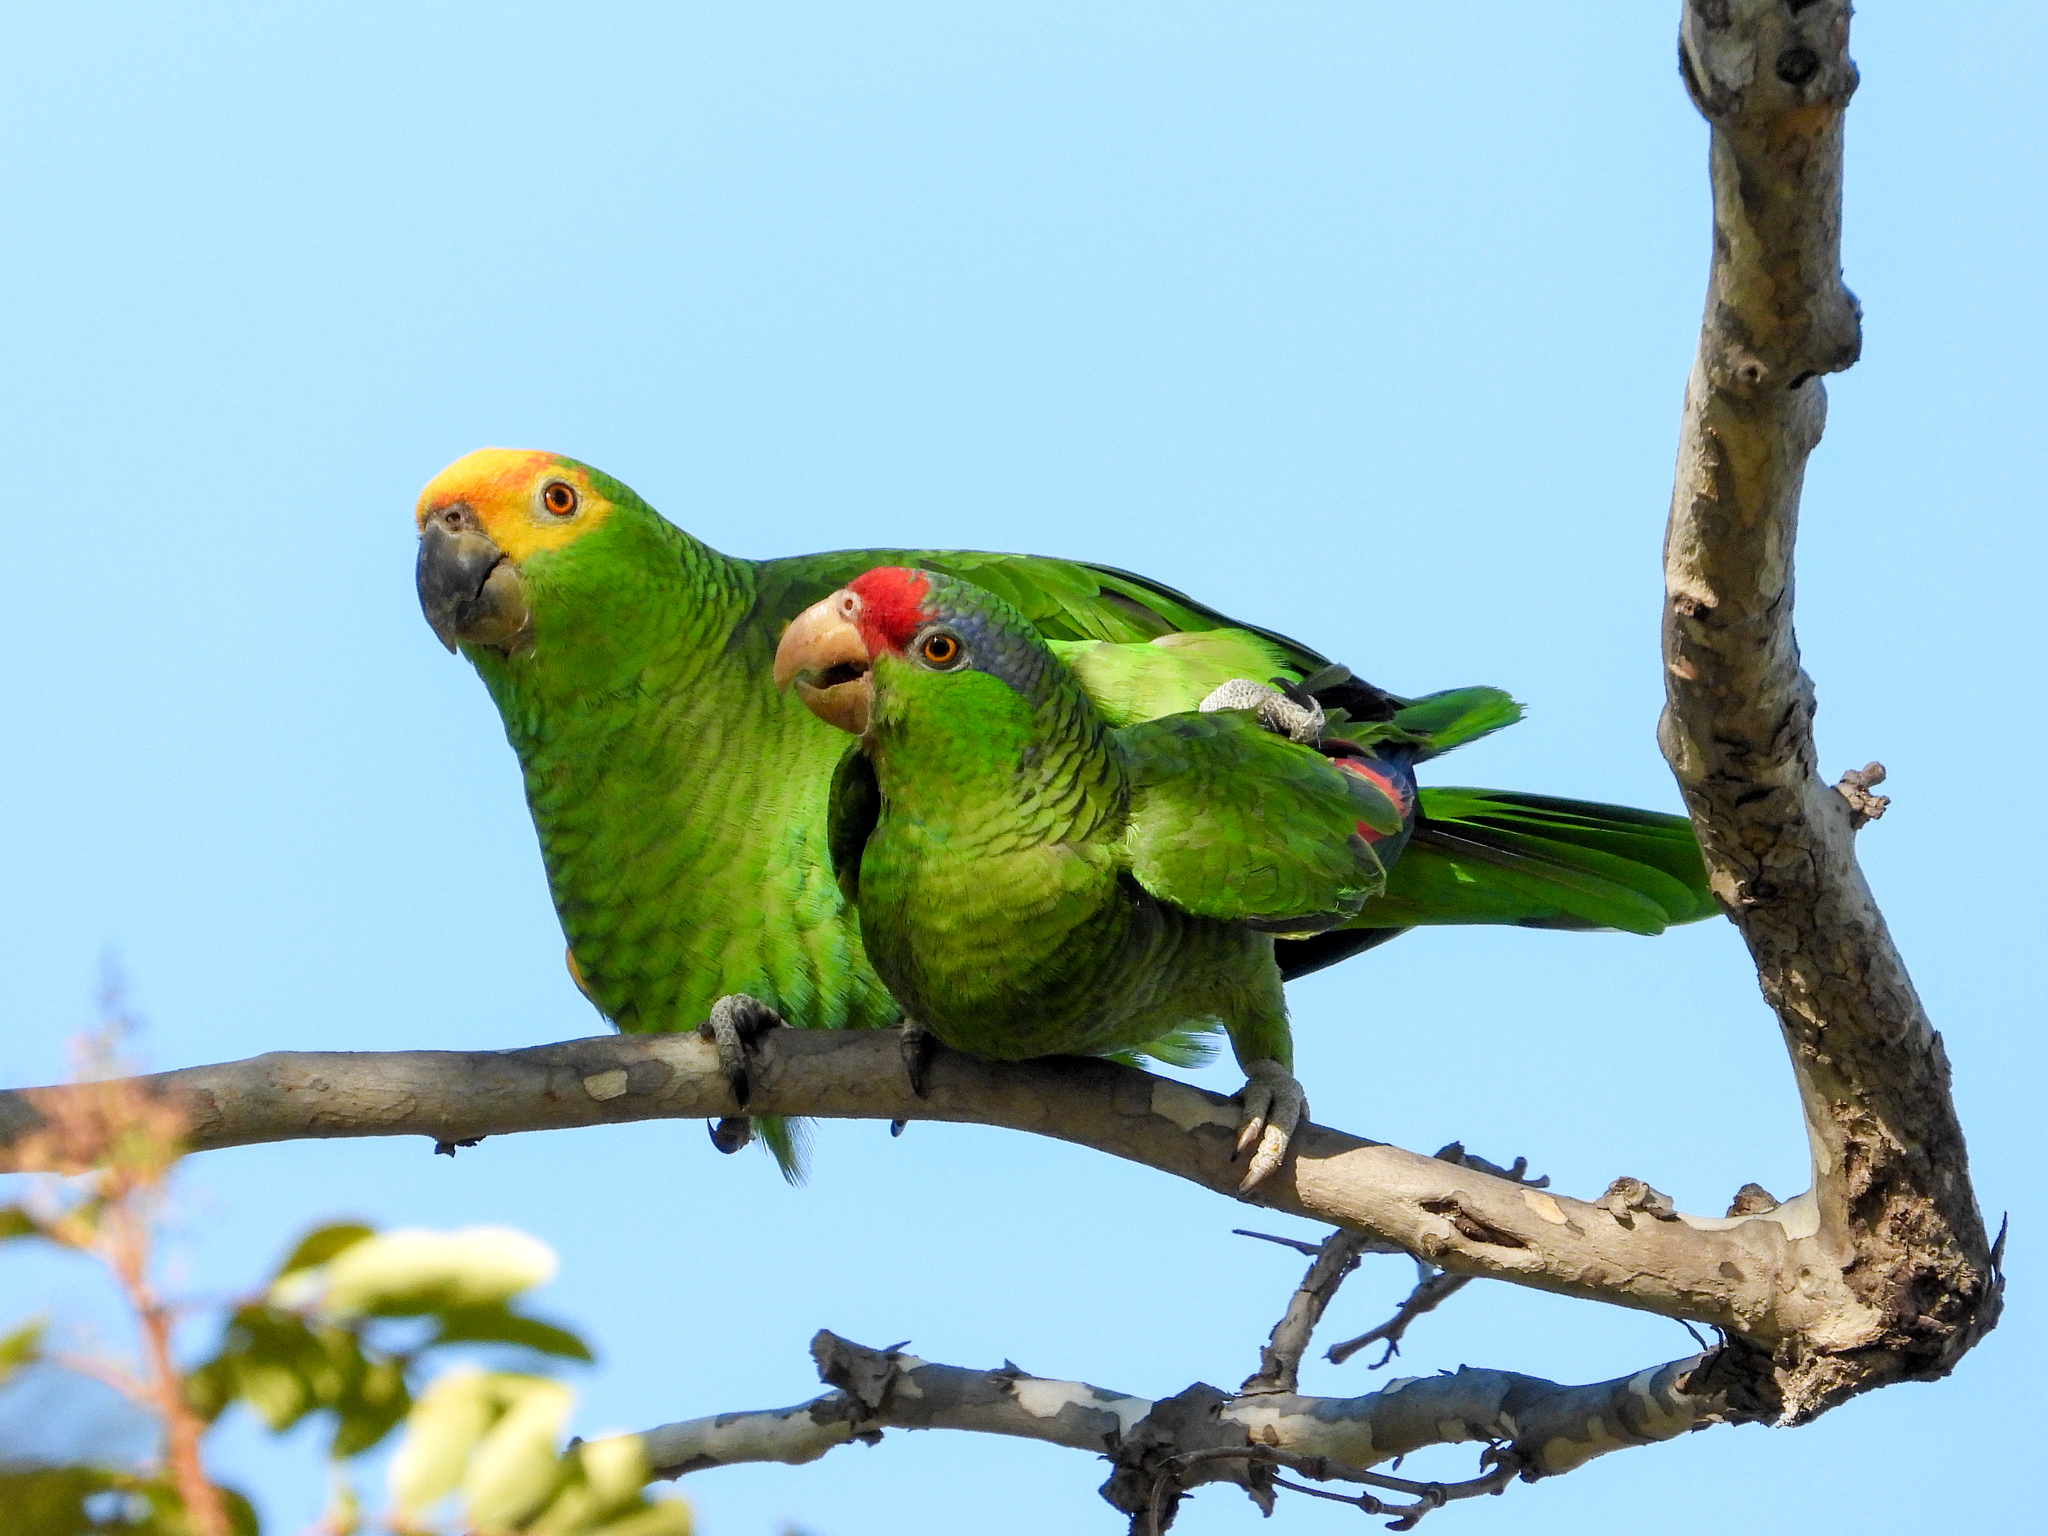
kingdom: Animalia
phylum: Chordata
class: Aves
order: Psittaciformes
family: Psittacidae
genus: Amazona
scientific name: Amazona viridigenalis
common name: Red-crowned amazon
